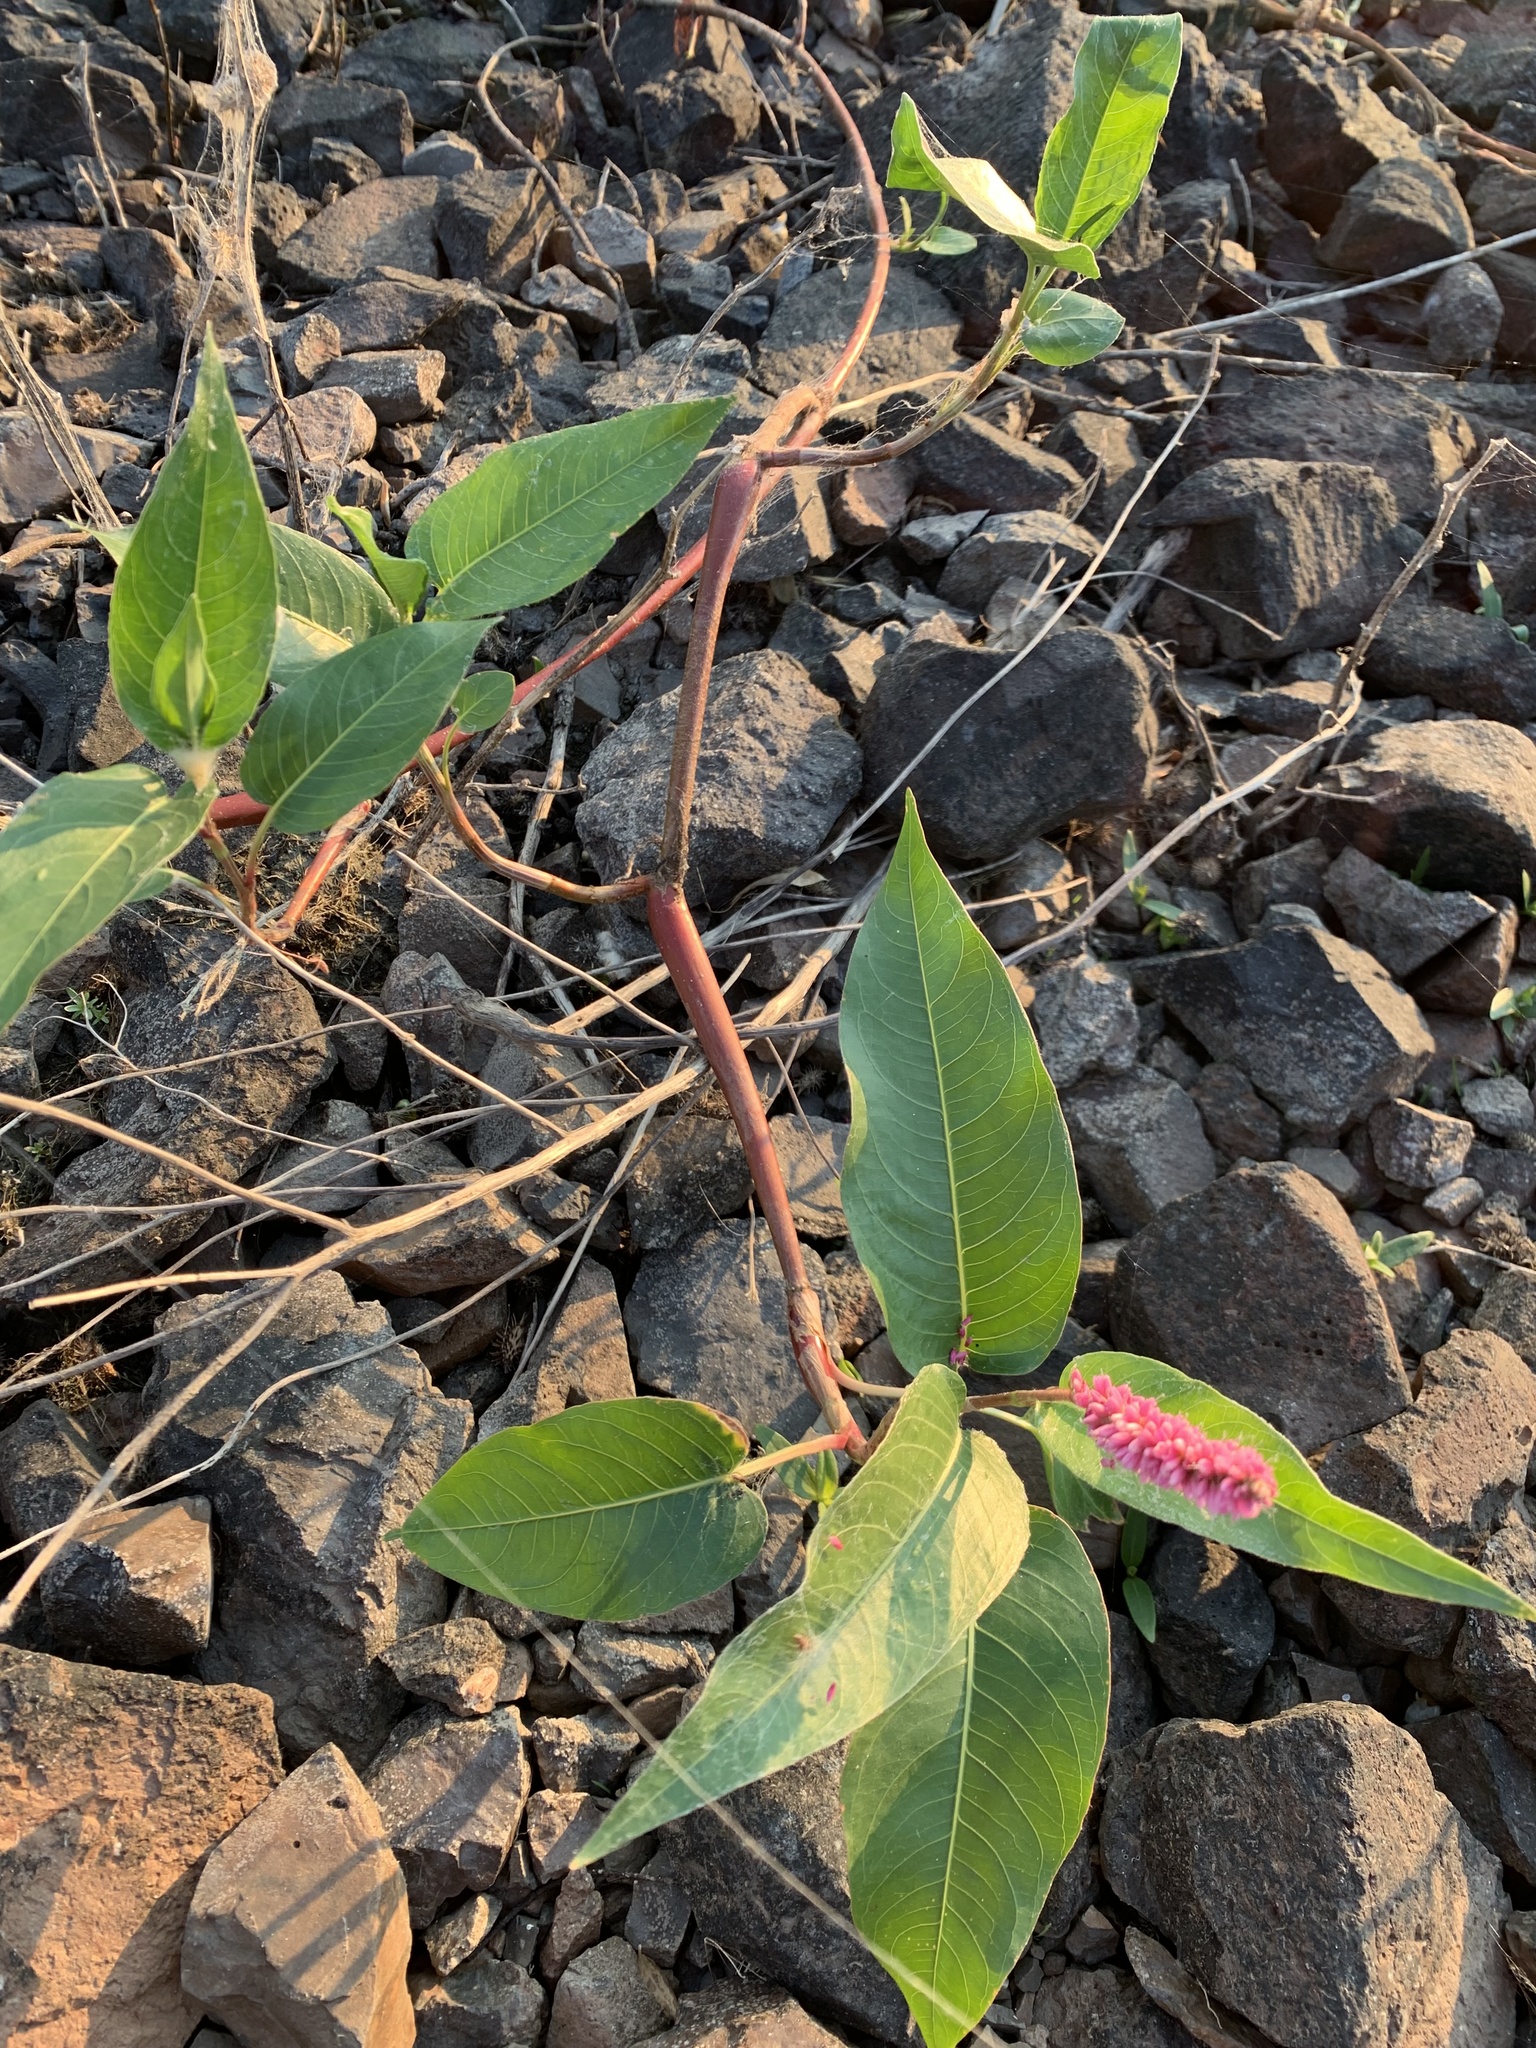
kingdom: Plantae
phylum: Tracheophyta
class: Magnoliopsida
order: Caryophyllales
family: Polygonaceae
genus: Persicaria
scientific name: Persicaria amphibia
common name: Amphibious bistort
